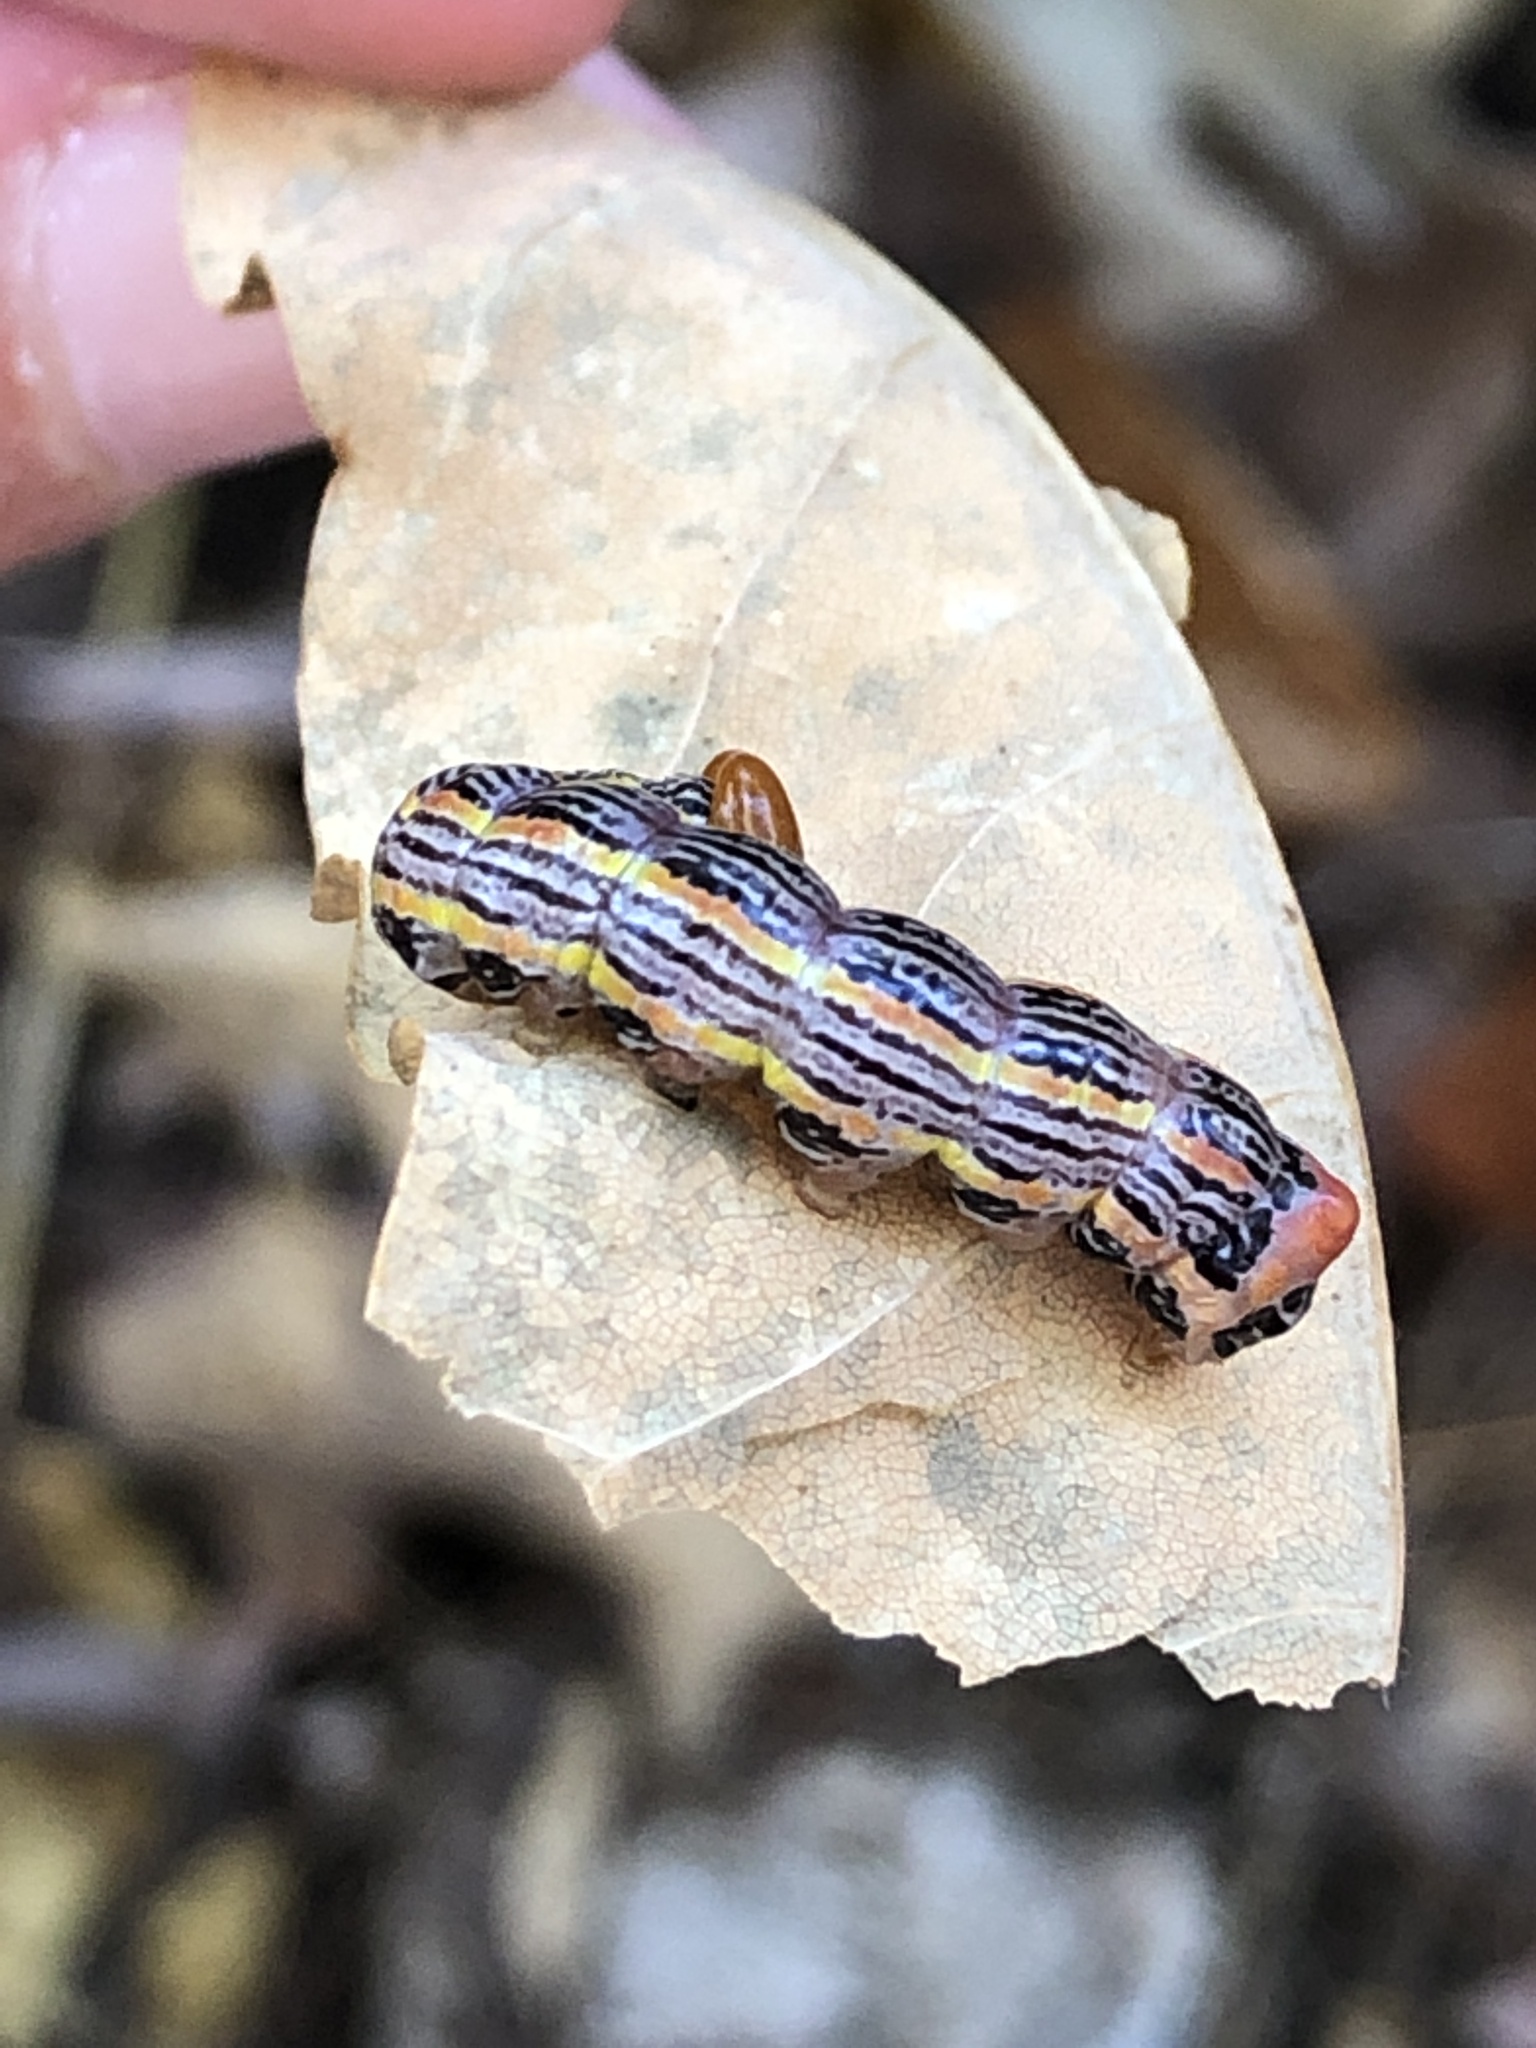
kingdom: Animalia
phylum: Arthropoda
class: Insecta
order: Lepidoptera
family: Notodontidae
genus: Symmerista
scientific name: Symmerista albifrons
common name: White-headed prominent
